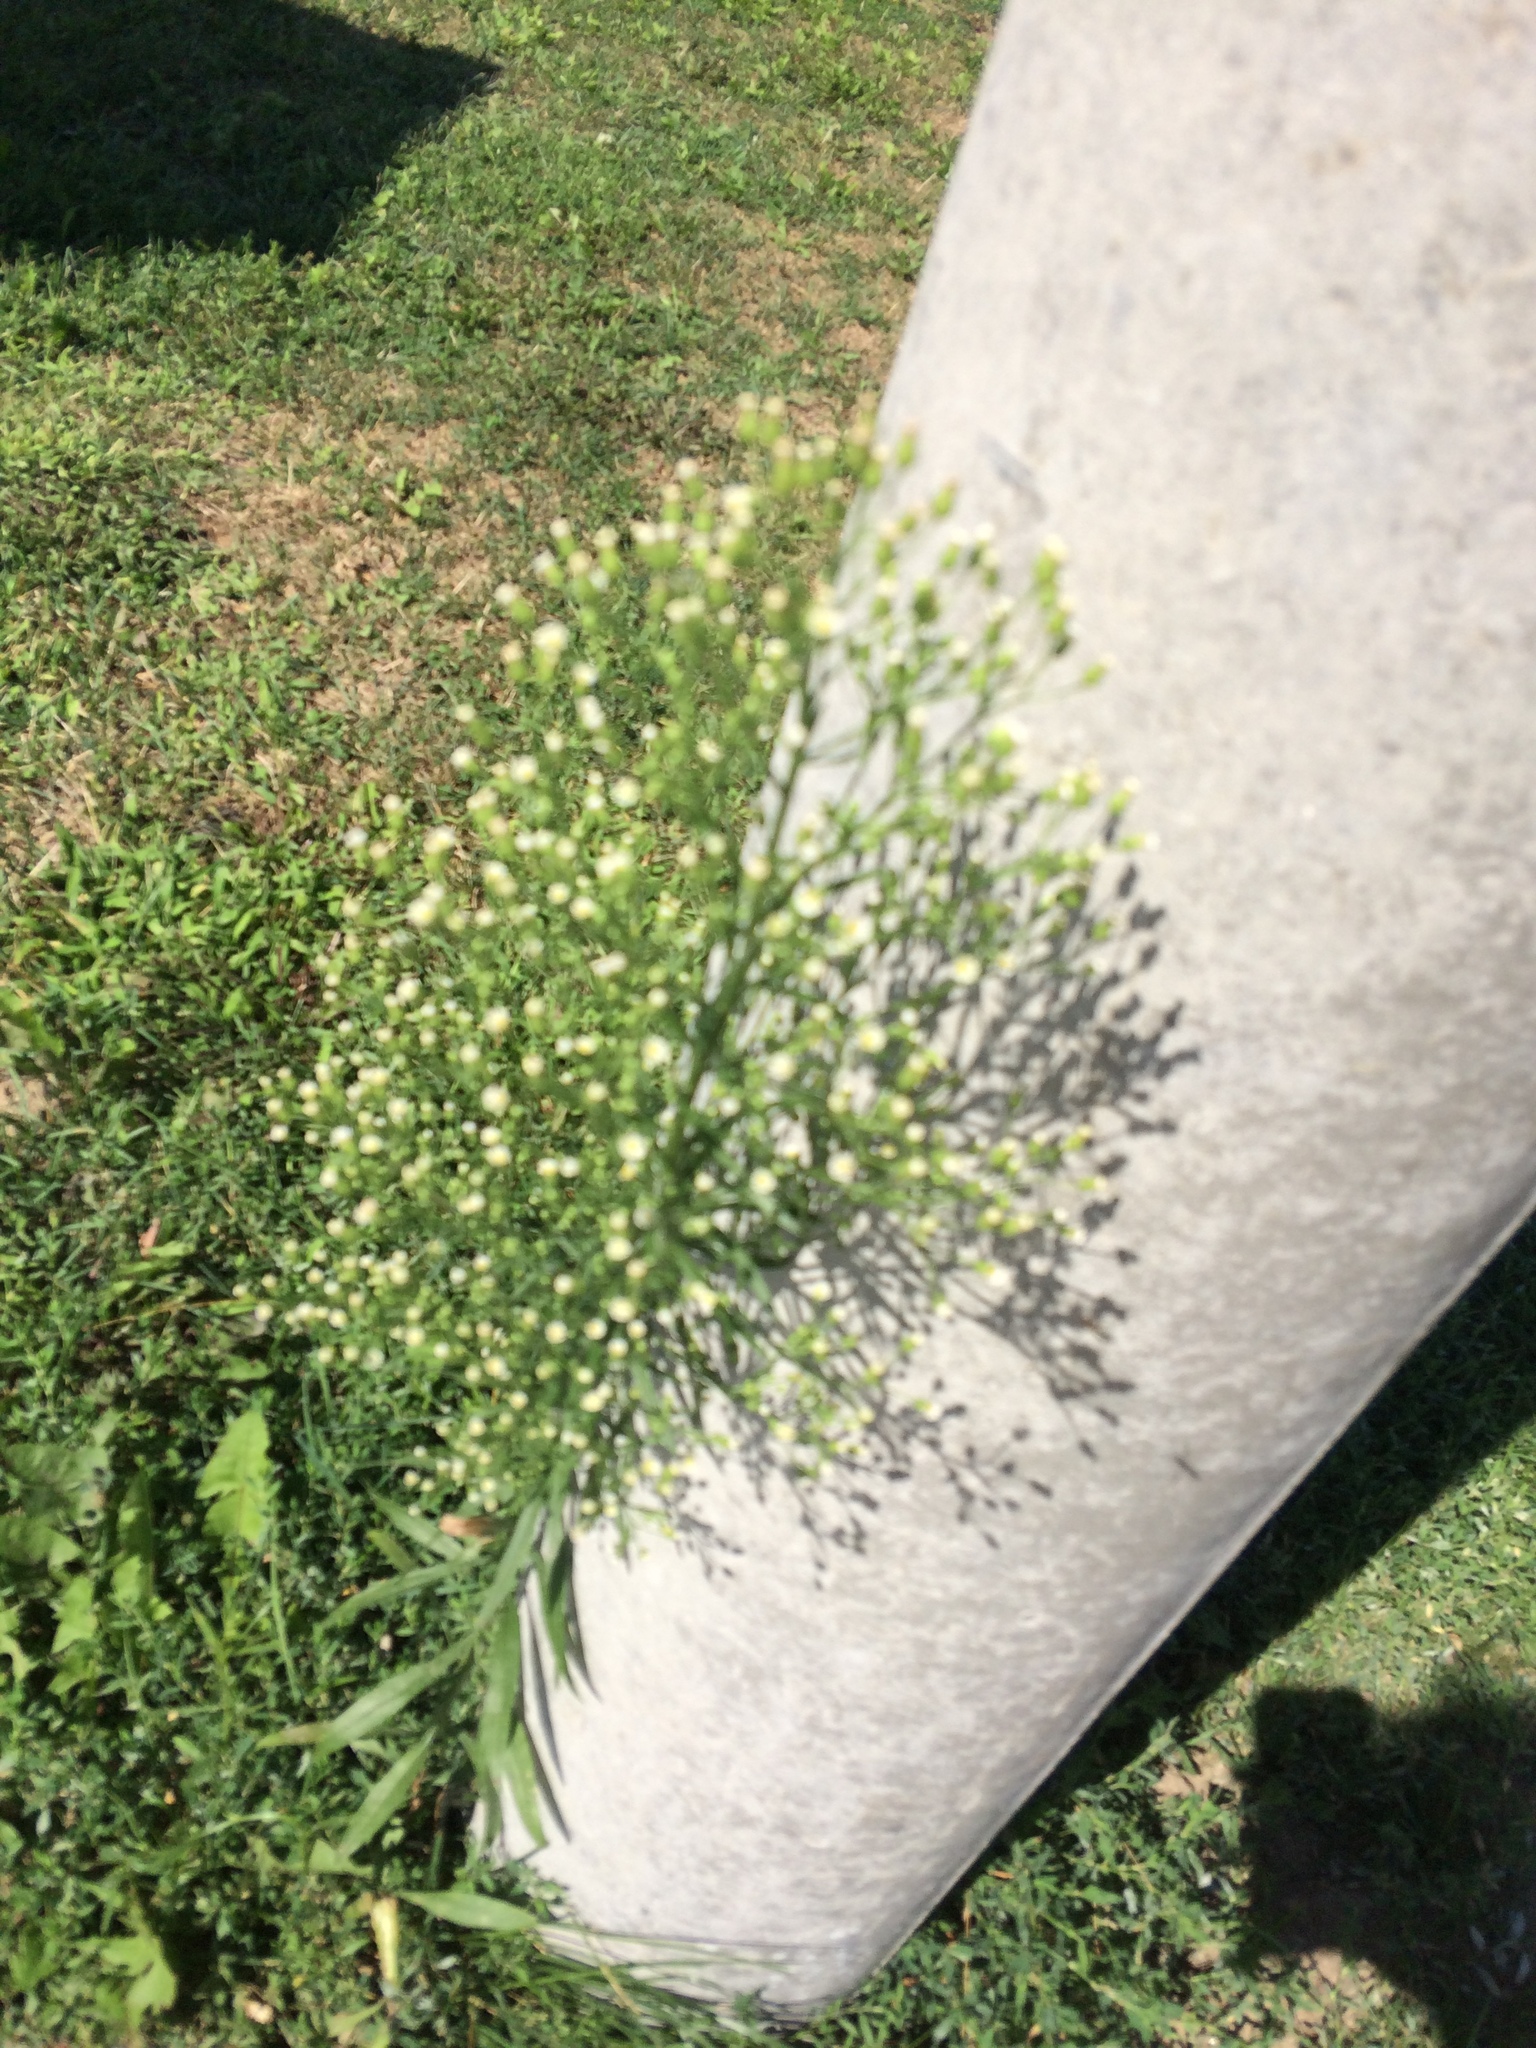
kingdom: Plantae
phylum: Tracheophyta
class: Magnoliopsida
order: Asterales
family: Asteraceae
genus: Erigeron
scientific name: Erigeron canadensis
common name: Canadian fleabane
